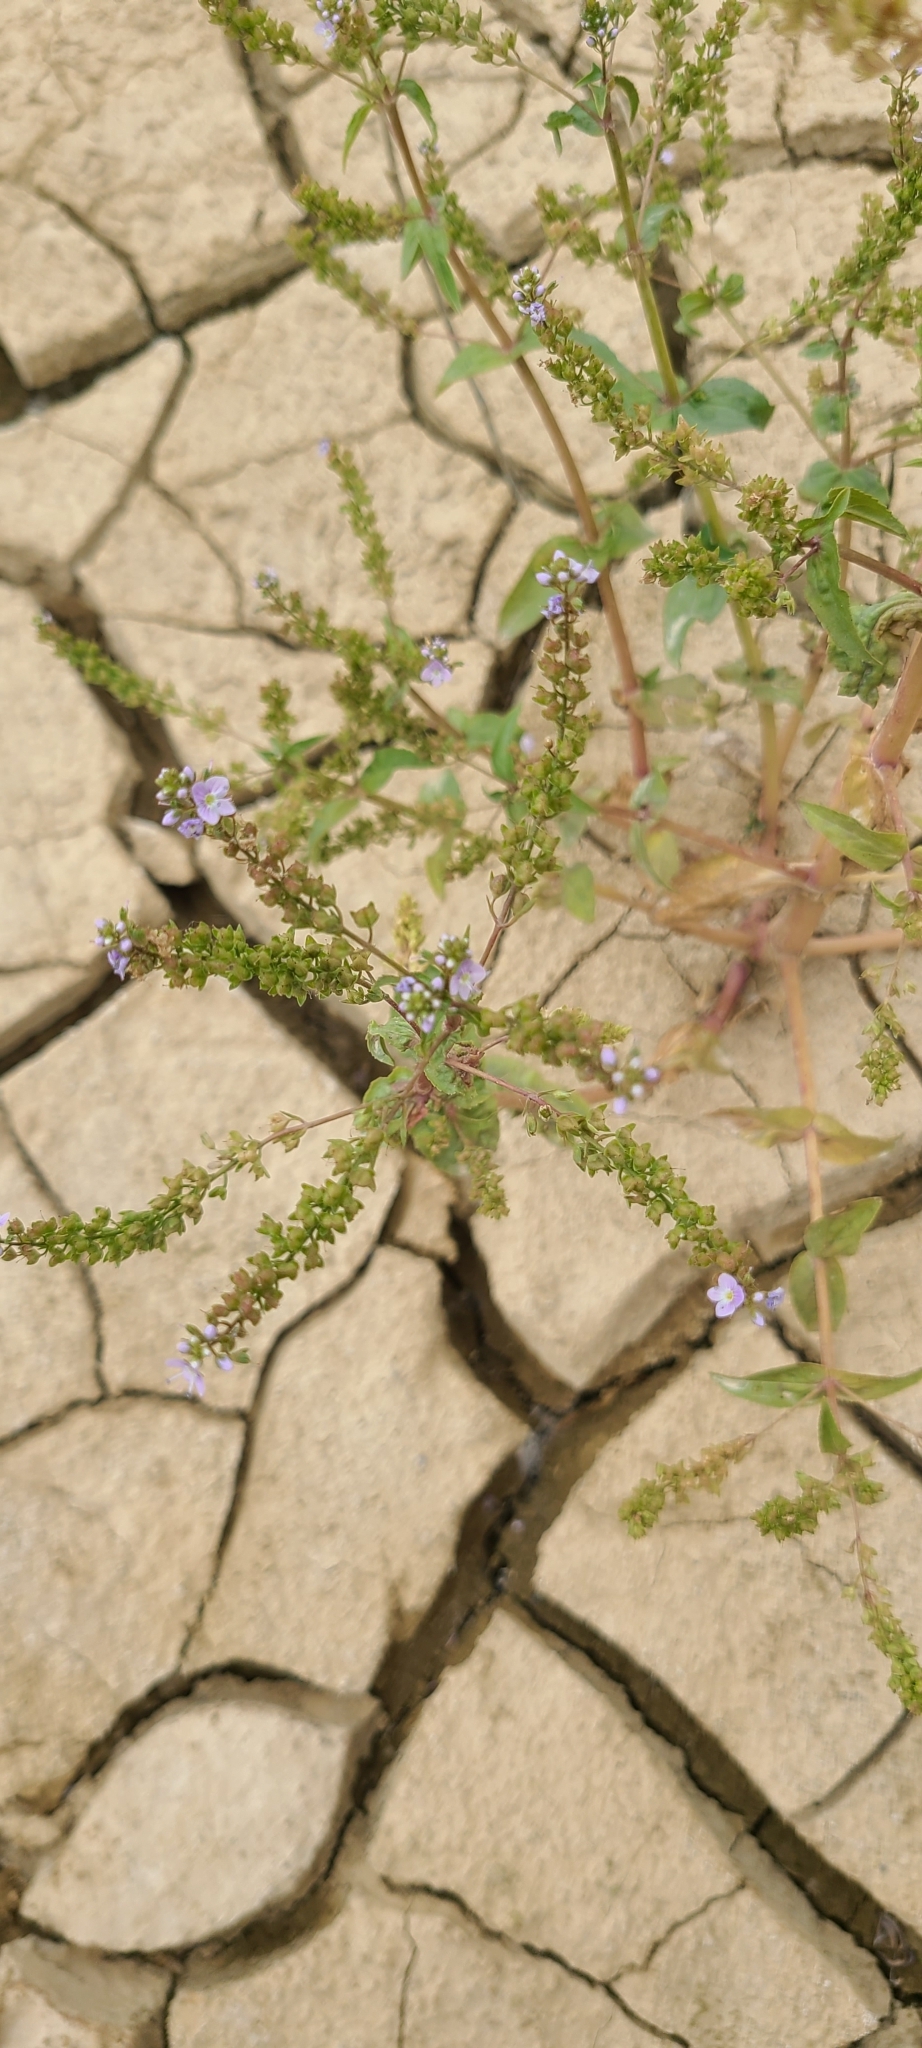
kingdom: Plantae
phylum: Tracheophyta
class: Magnoliopsida
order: Lamiales
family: Plantaginaceae
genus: Veronica
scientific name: Veronica anagallis-aquatica
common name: Water speedwell
